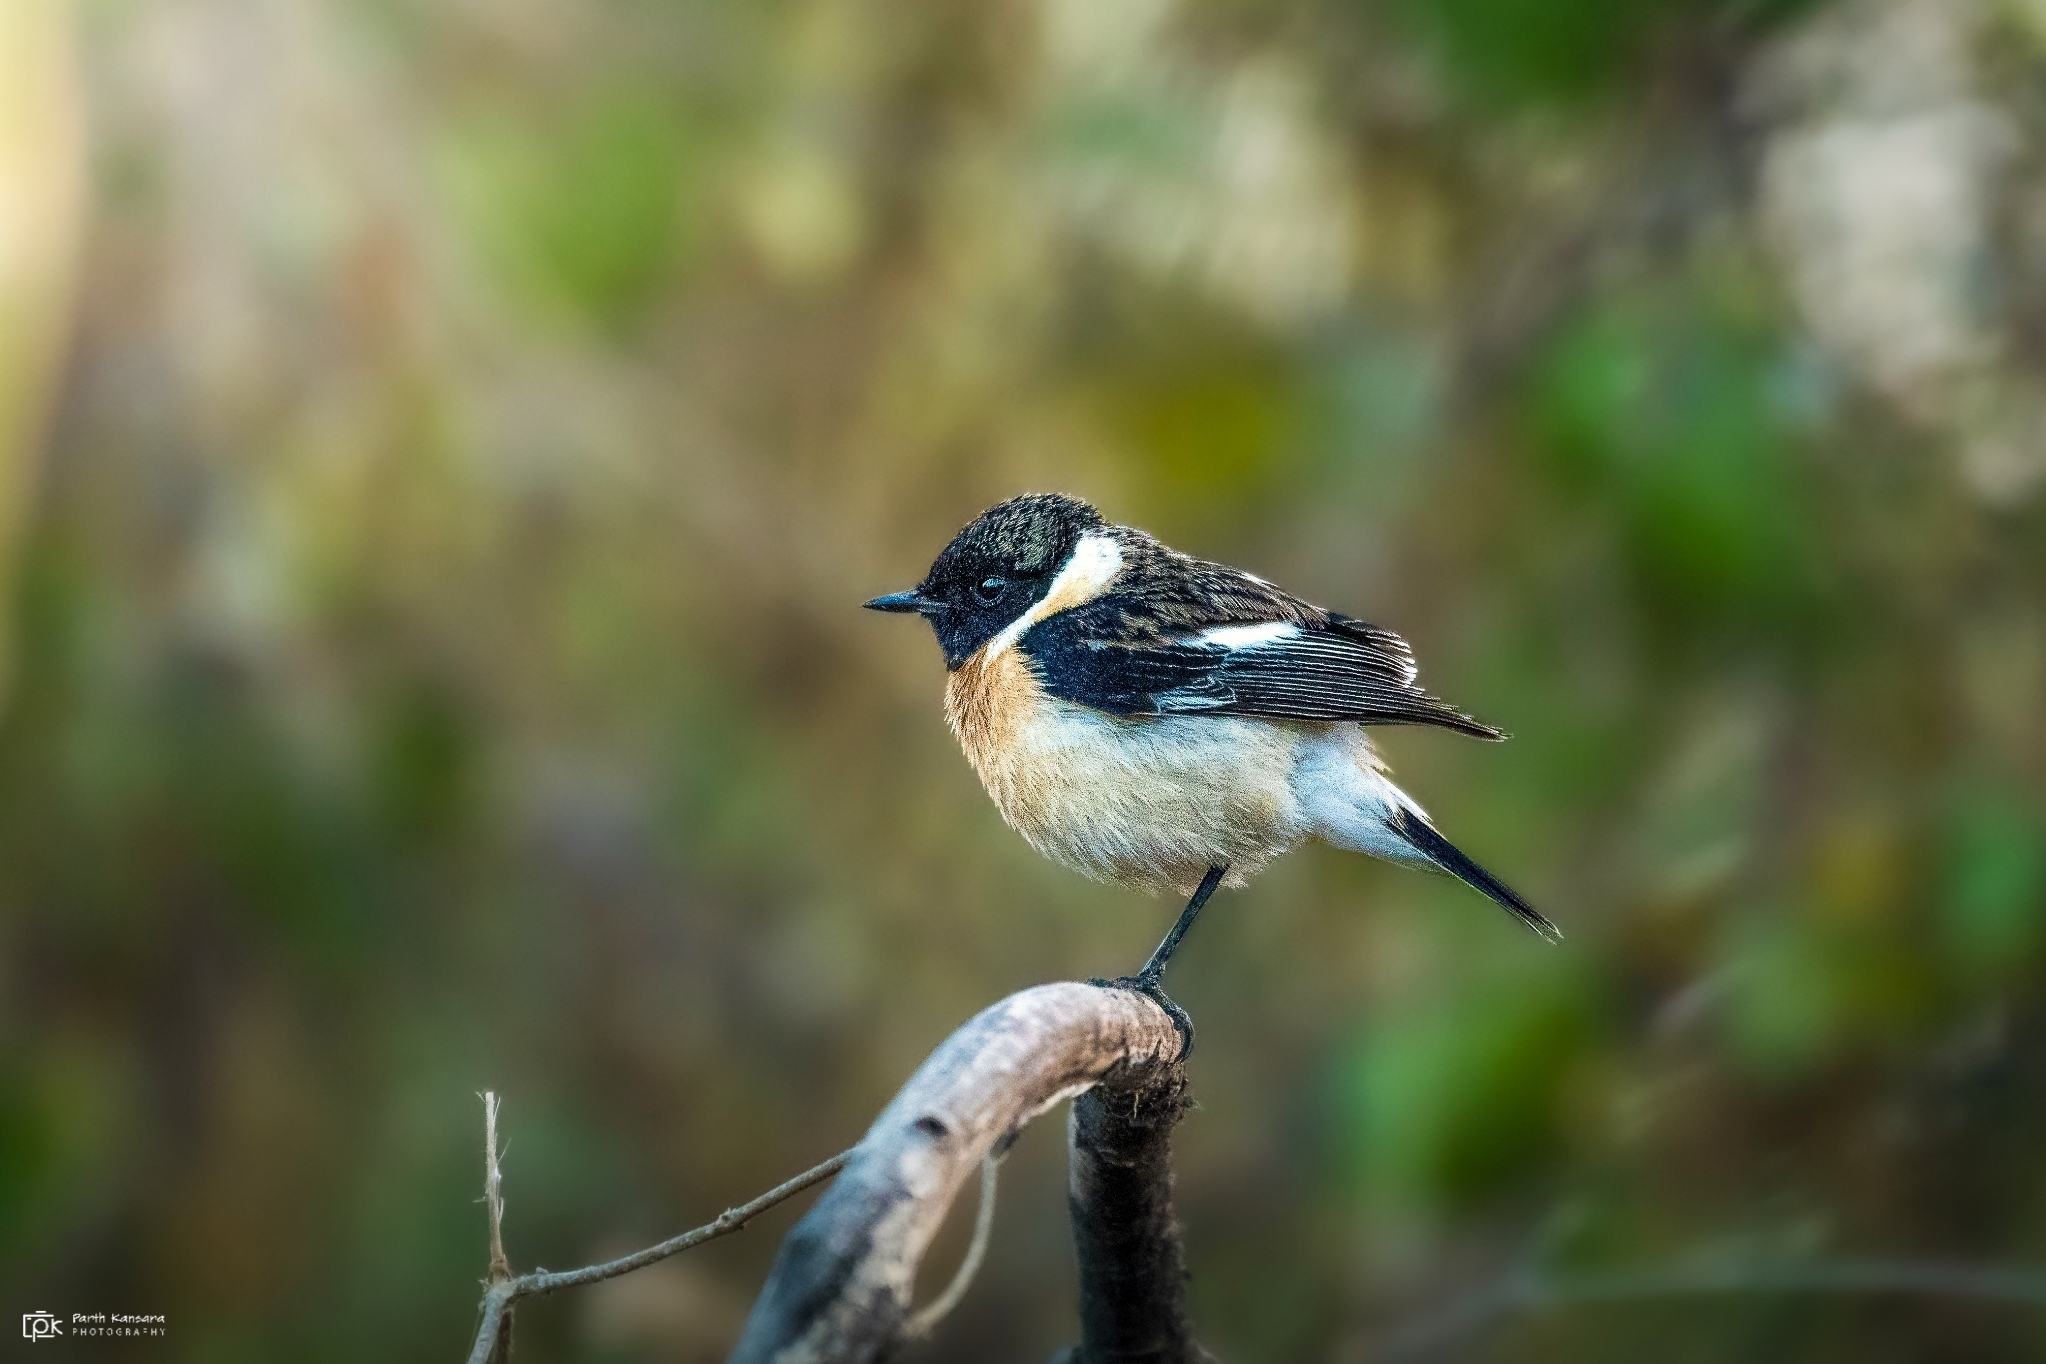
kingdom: Animalia
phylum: Chordata
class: Aves
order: Passeriformes
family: Muscicapidae
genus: Saxicola
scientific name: Saxicola maurus
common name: Siberian stonechat
